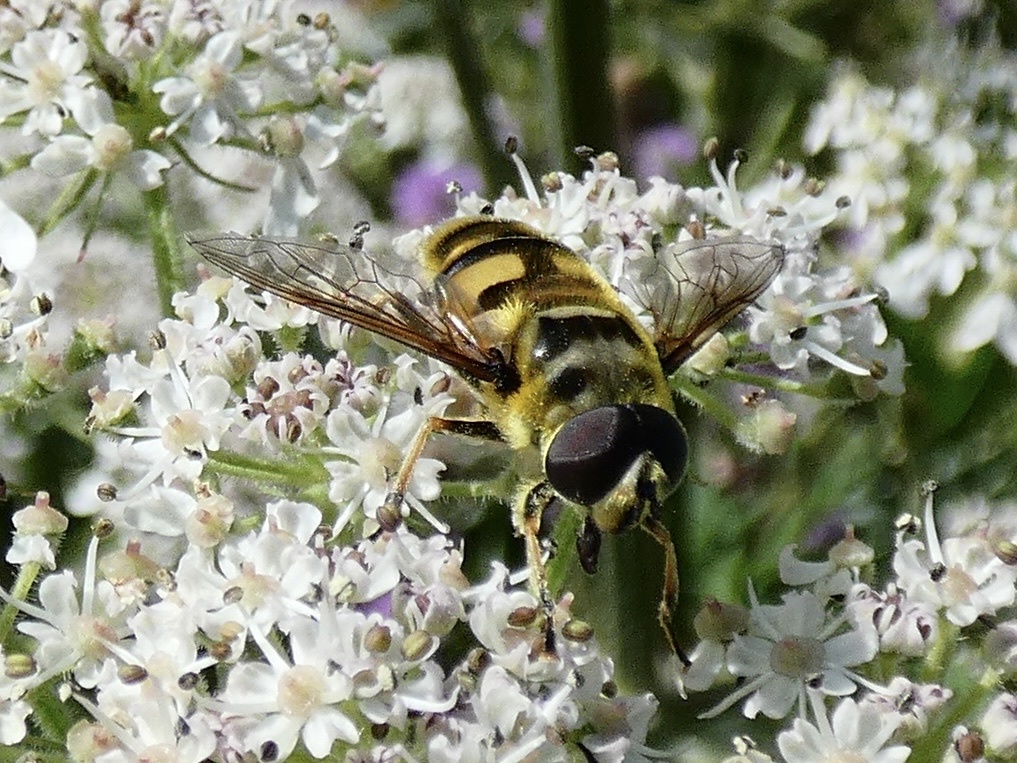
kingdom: Animalia
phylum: Arthropoda
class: Insecta
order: Diptera
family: Syrphidae
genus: Myathropa
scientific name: Myathropa florea
